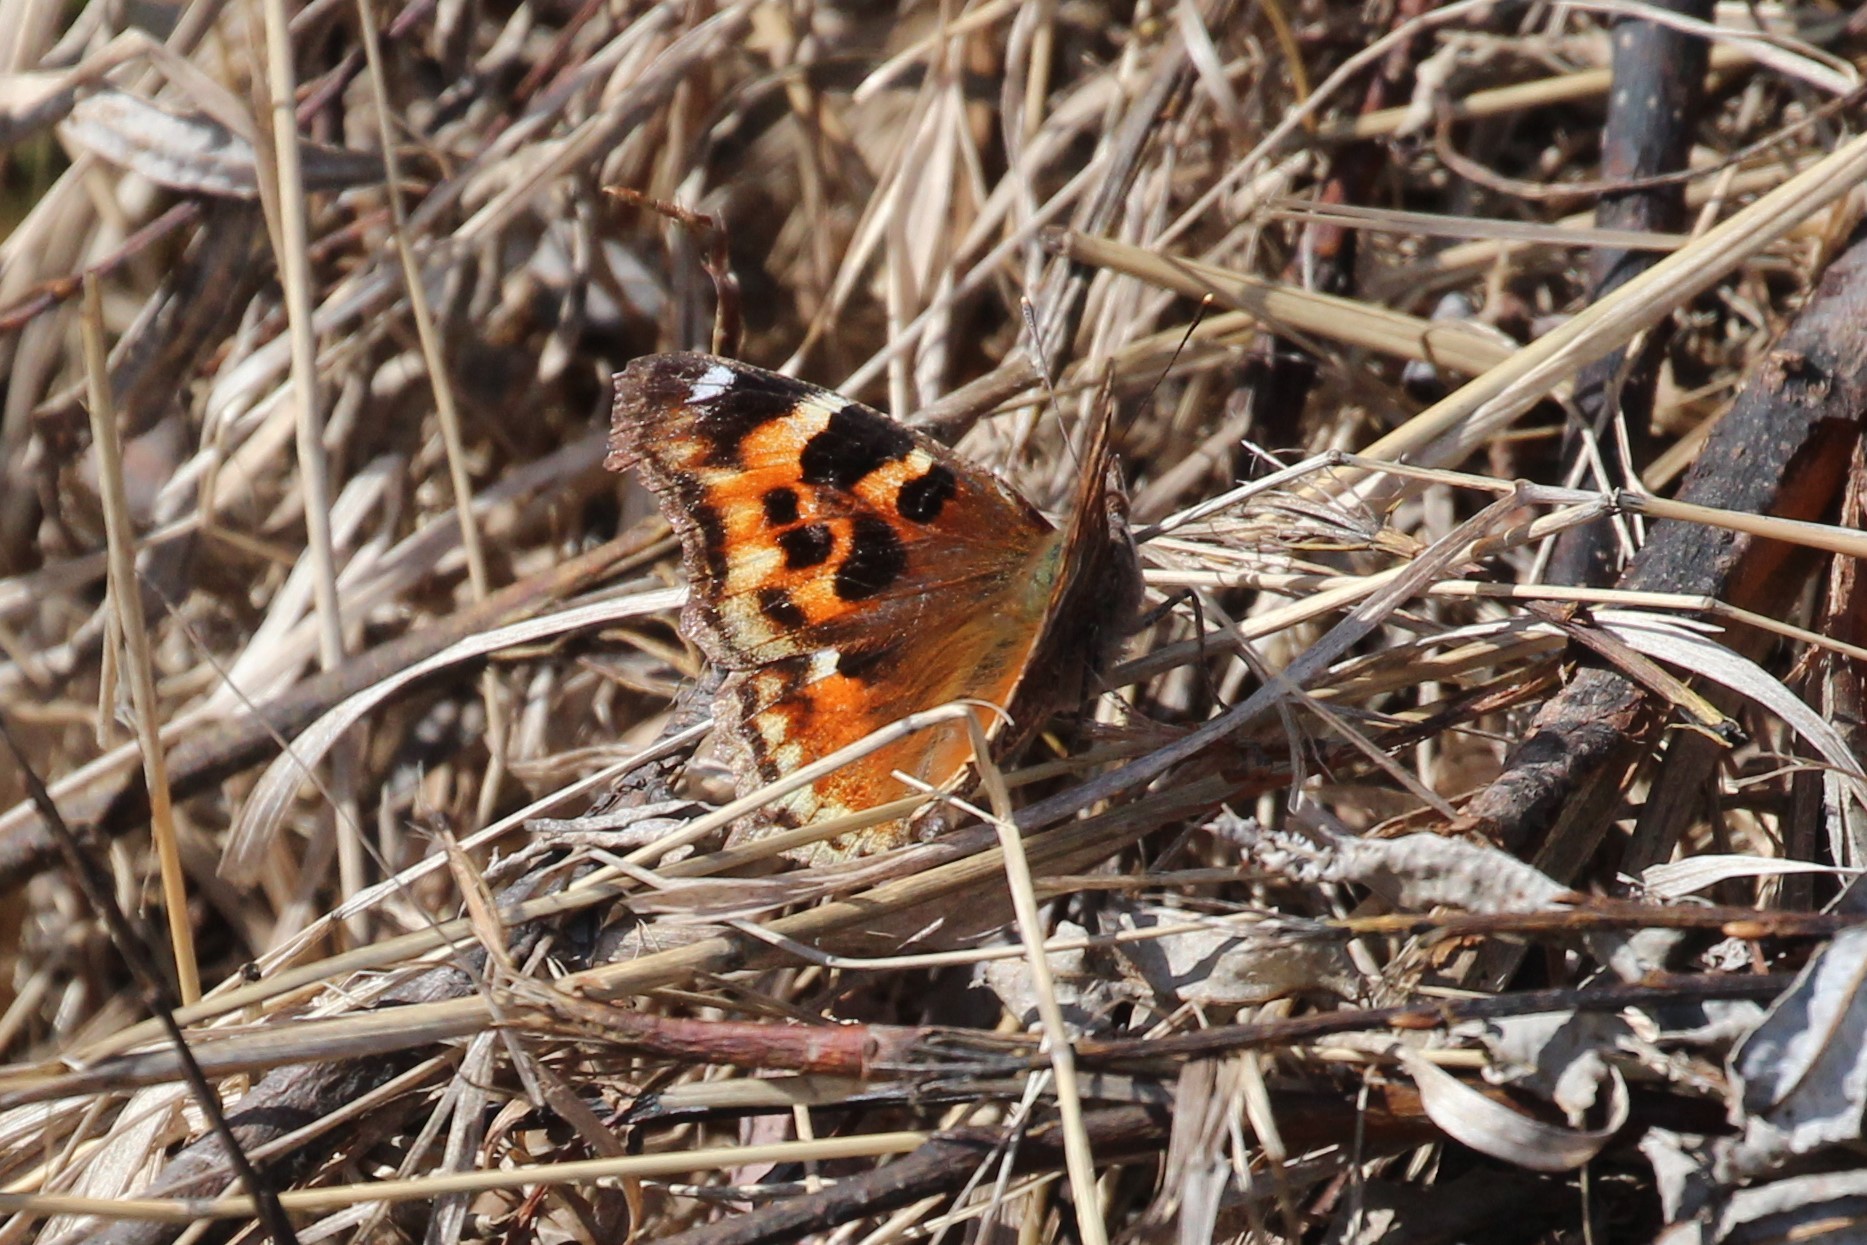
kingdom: Animalia
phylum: Arthropoda
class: Insecta
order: Lepidoptera
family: Nymphalidae
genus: Polygonia
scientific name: Polygonia vaualbum
